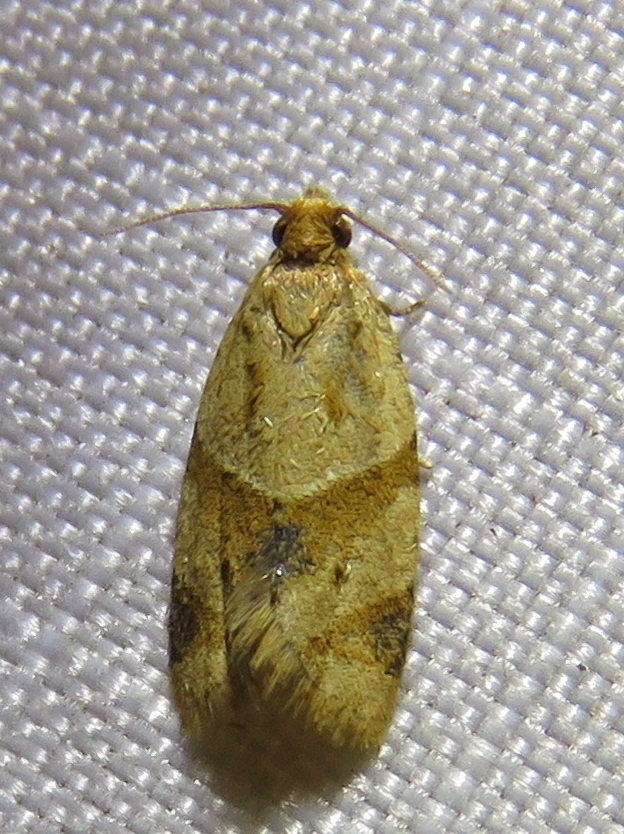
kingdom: Animalia
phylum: Arthropoda
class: Insecta
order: Lepidoptera
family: Tortricidae
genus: Clepsis
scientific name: Clepsis peritana
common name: Garden tortrix
